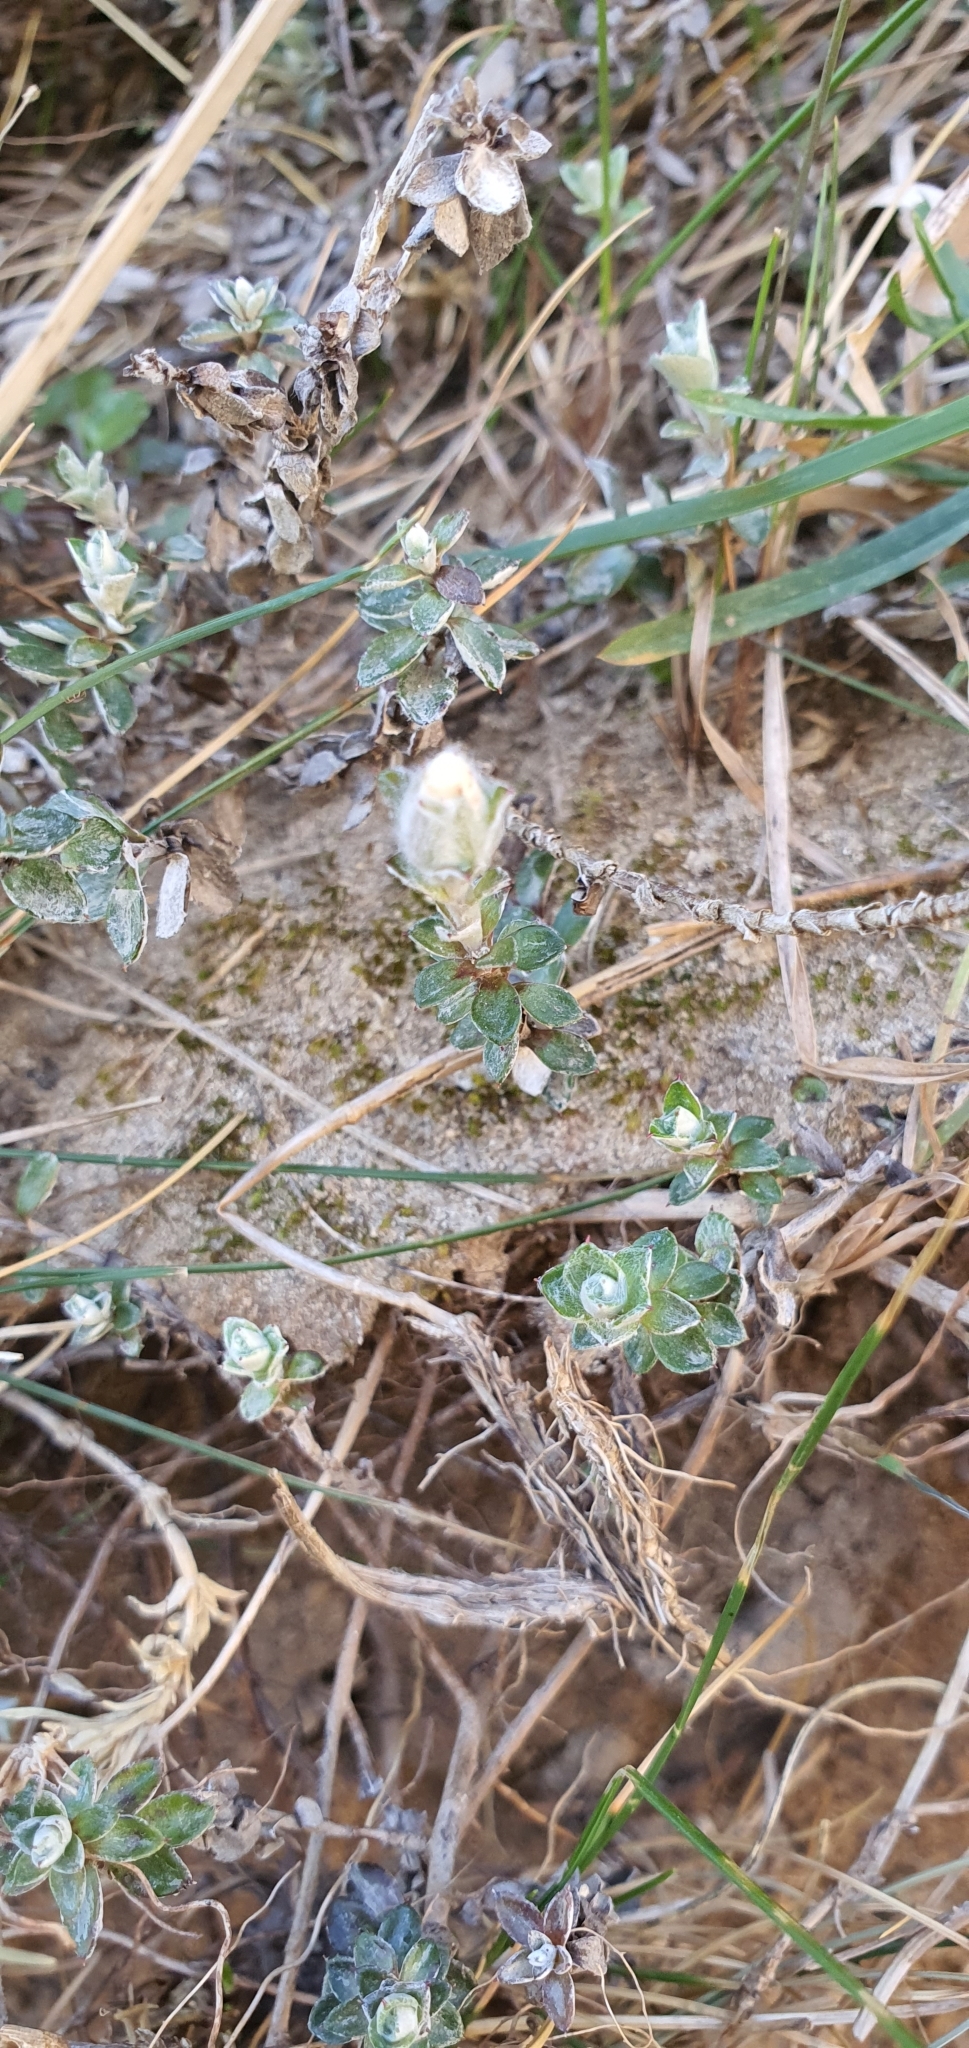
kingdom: Plantae
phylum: Tracheophyta
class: Magnoliopsida
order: Asterales
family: Asteraceae
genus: Anaphalioides
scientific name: Anaphalioides bellidioides
